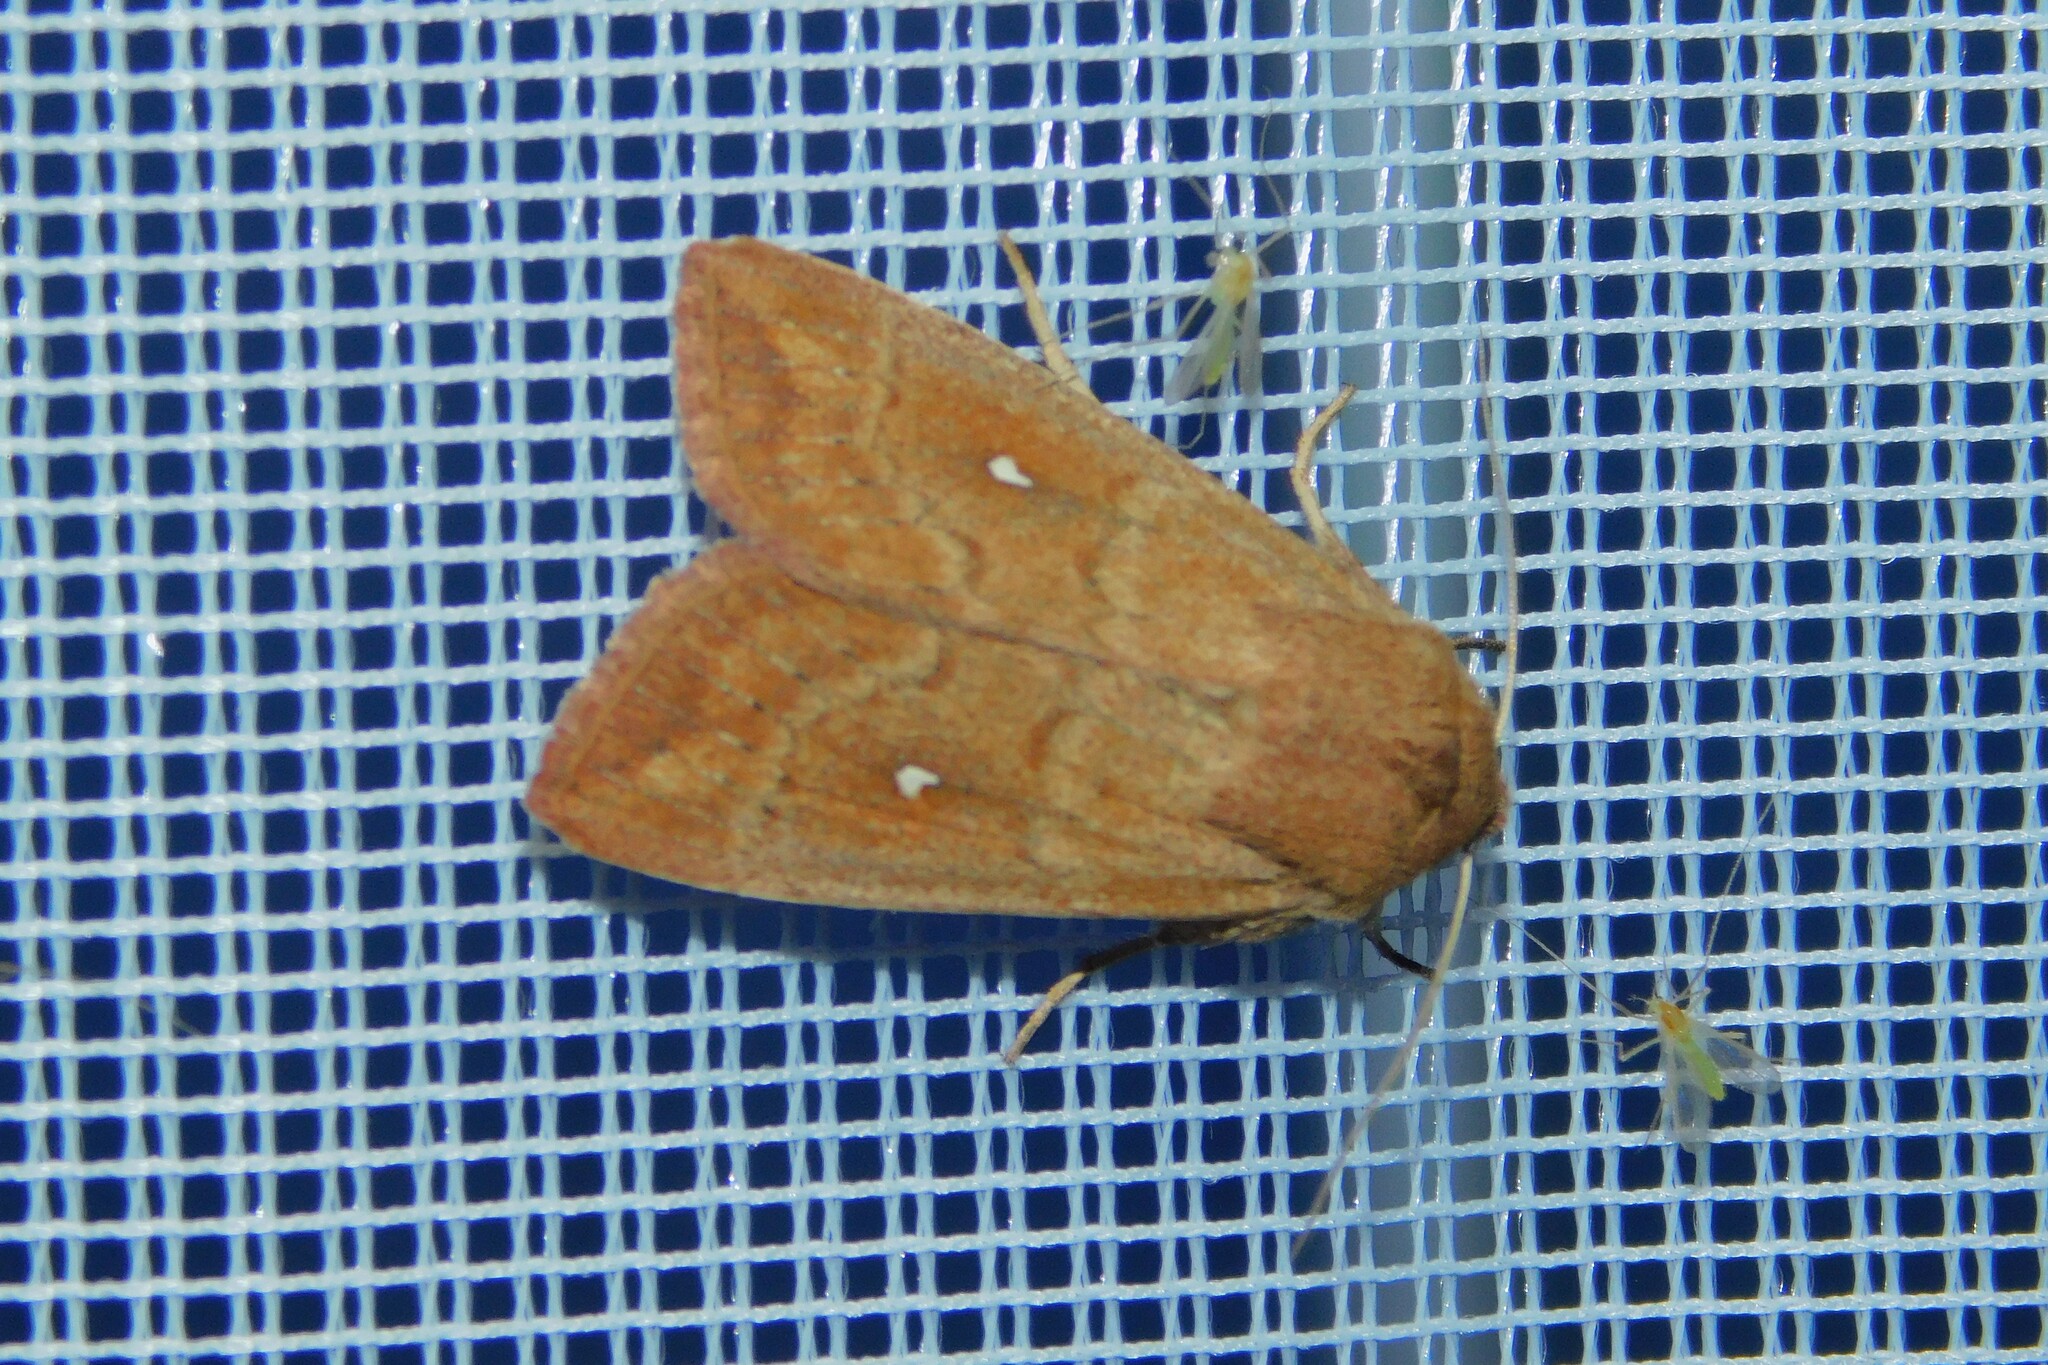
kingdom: Animalia
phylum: Arthropoda
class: Insecta
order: Lepidoptera
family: Noctuidae
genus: Mythimna
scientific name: Mythimna albipuncta
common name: White-point
